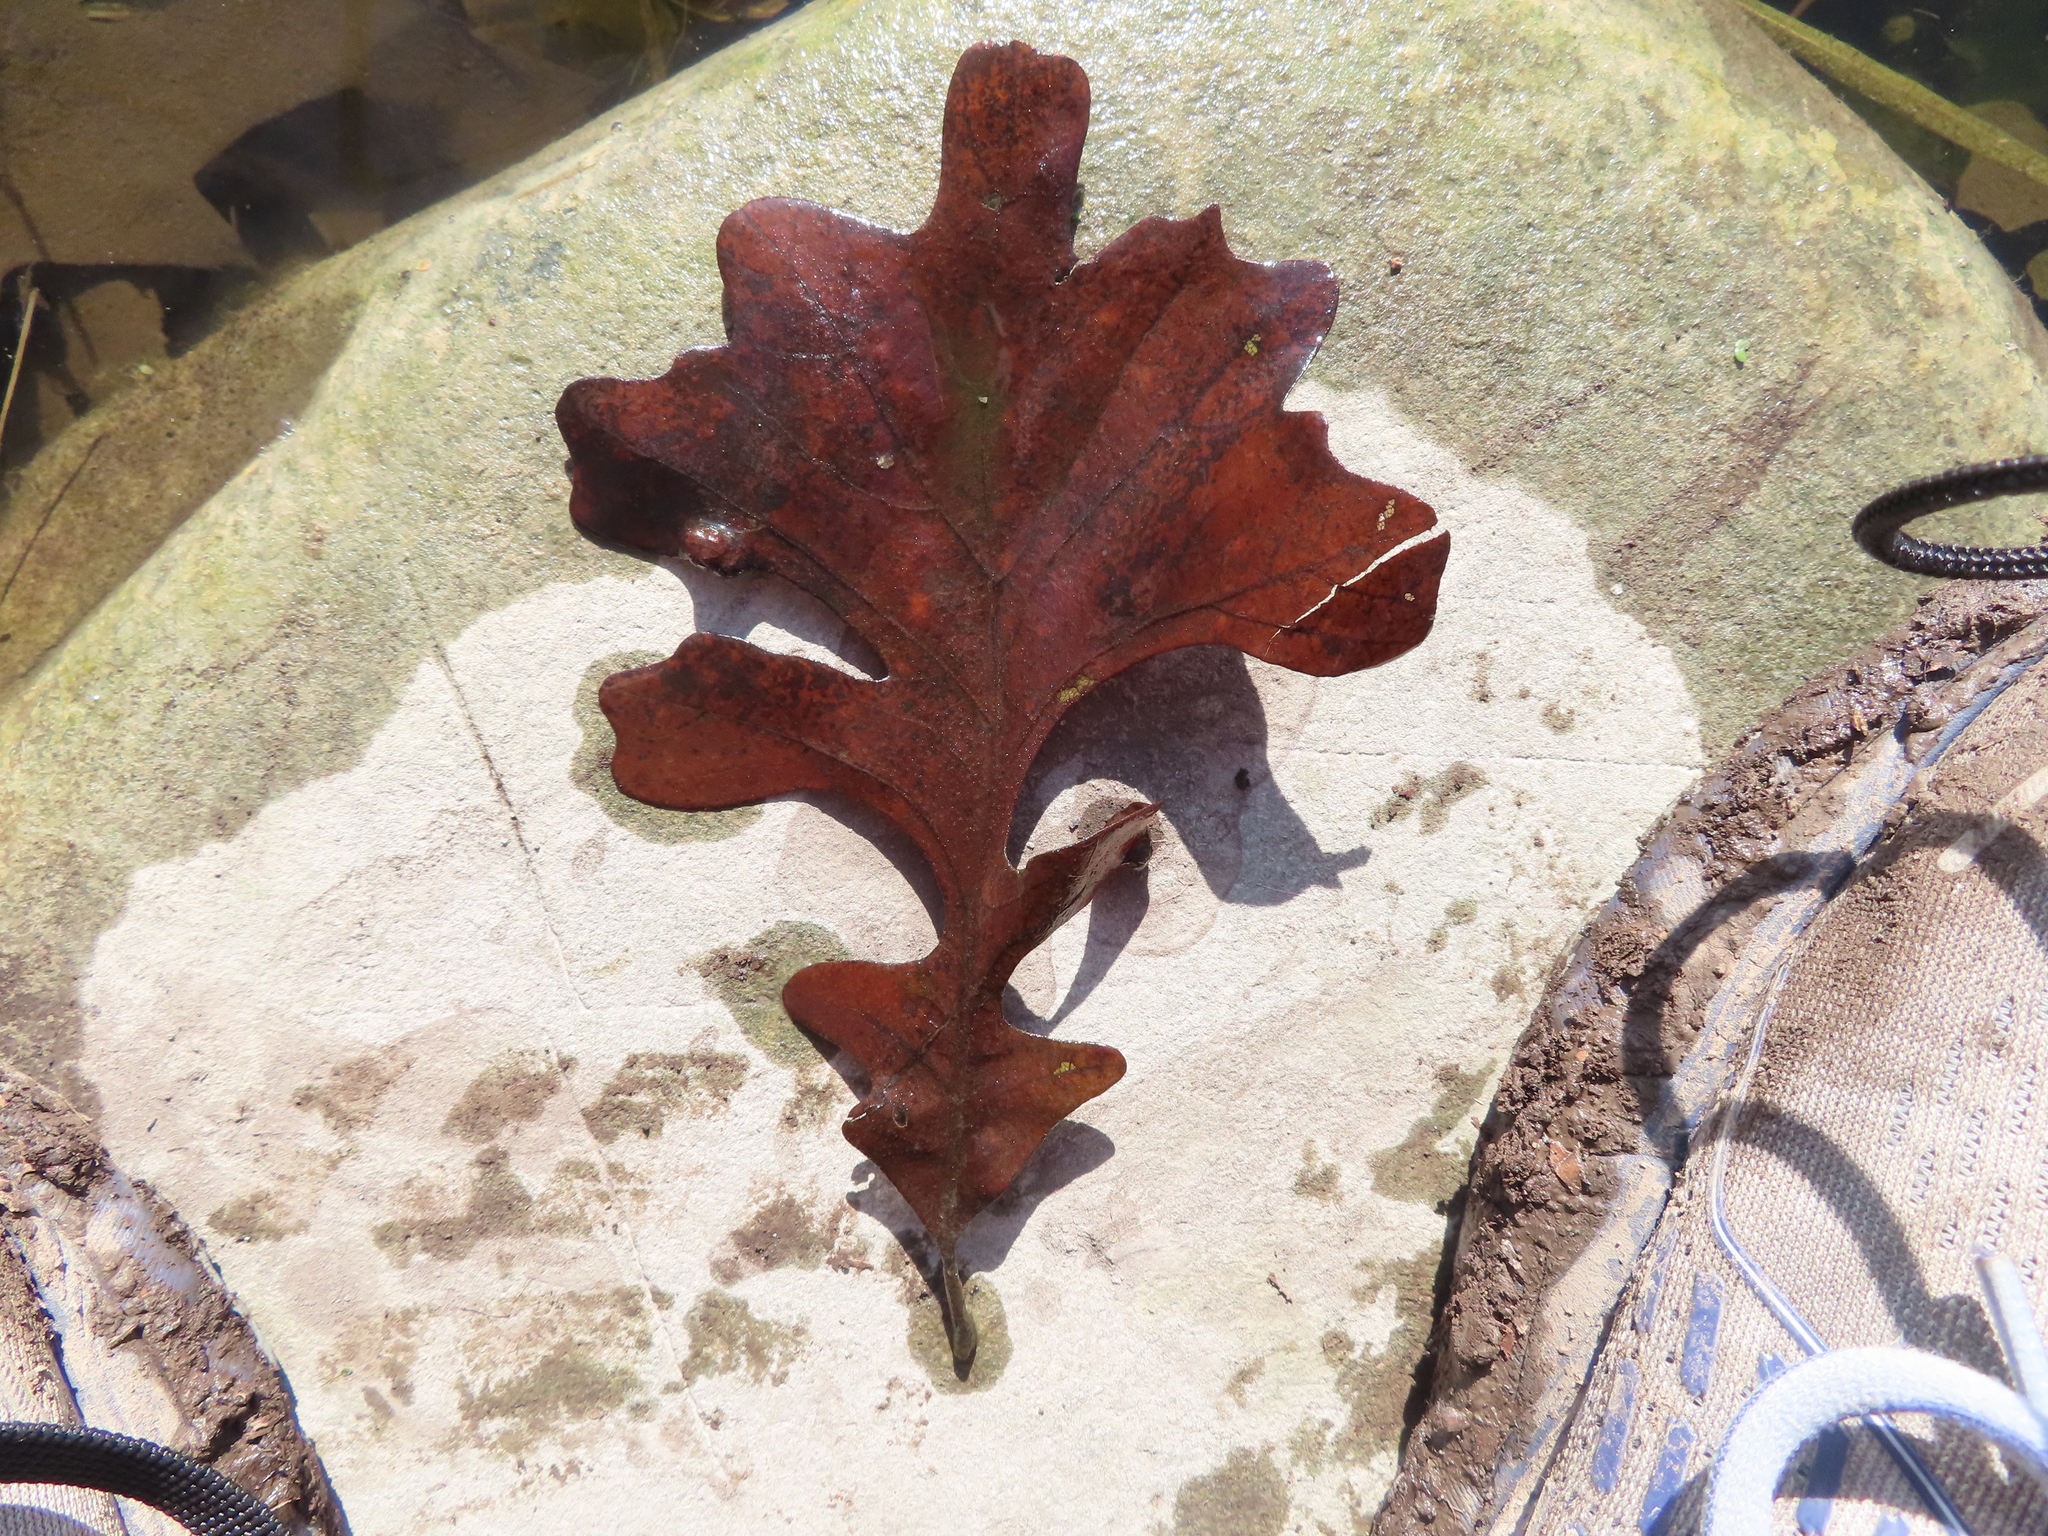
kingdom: Plantae
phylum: Tracheophyta
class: Magnoliopsida
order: Fagales
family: Fagaceae
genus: Quercus
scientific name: Quercus macrocarpa
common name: Bur oak
